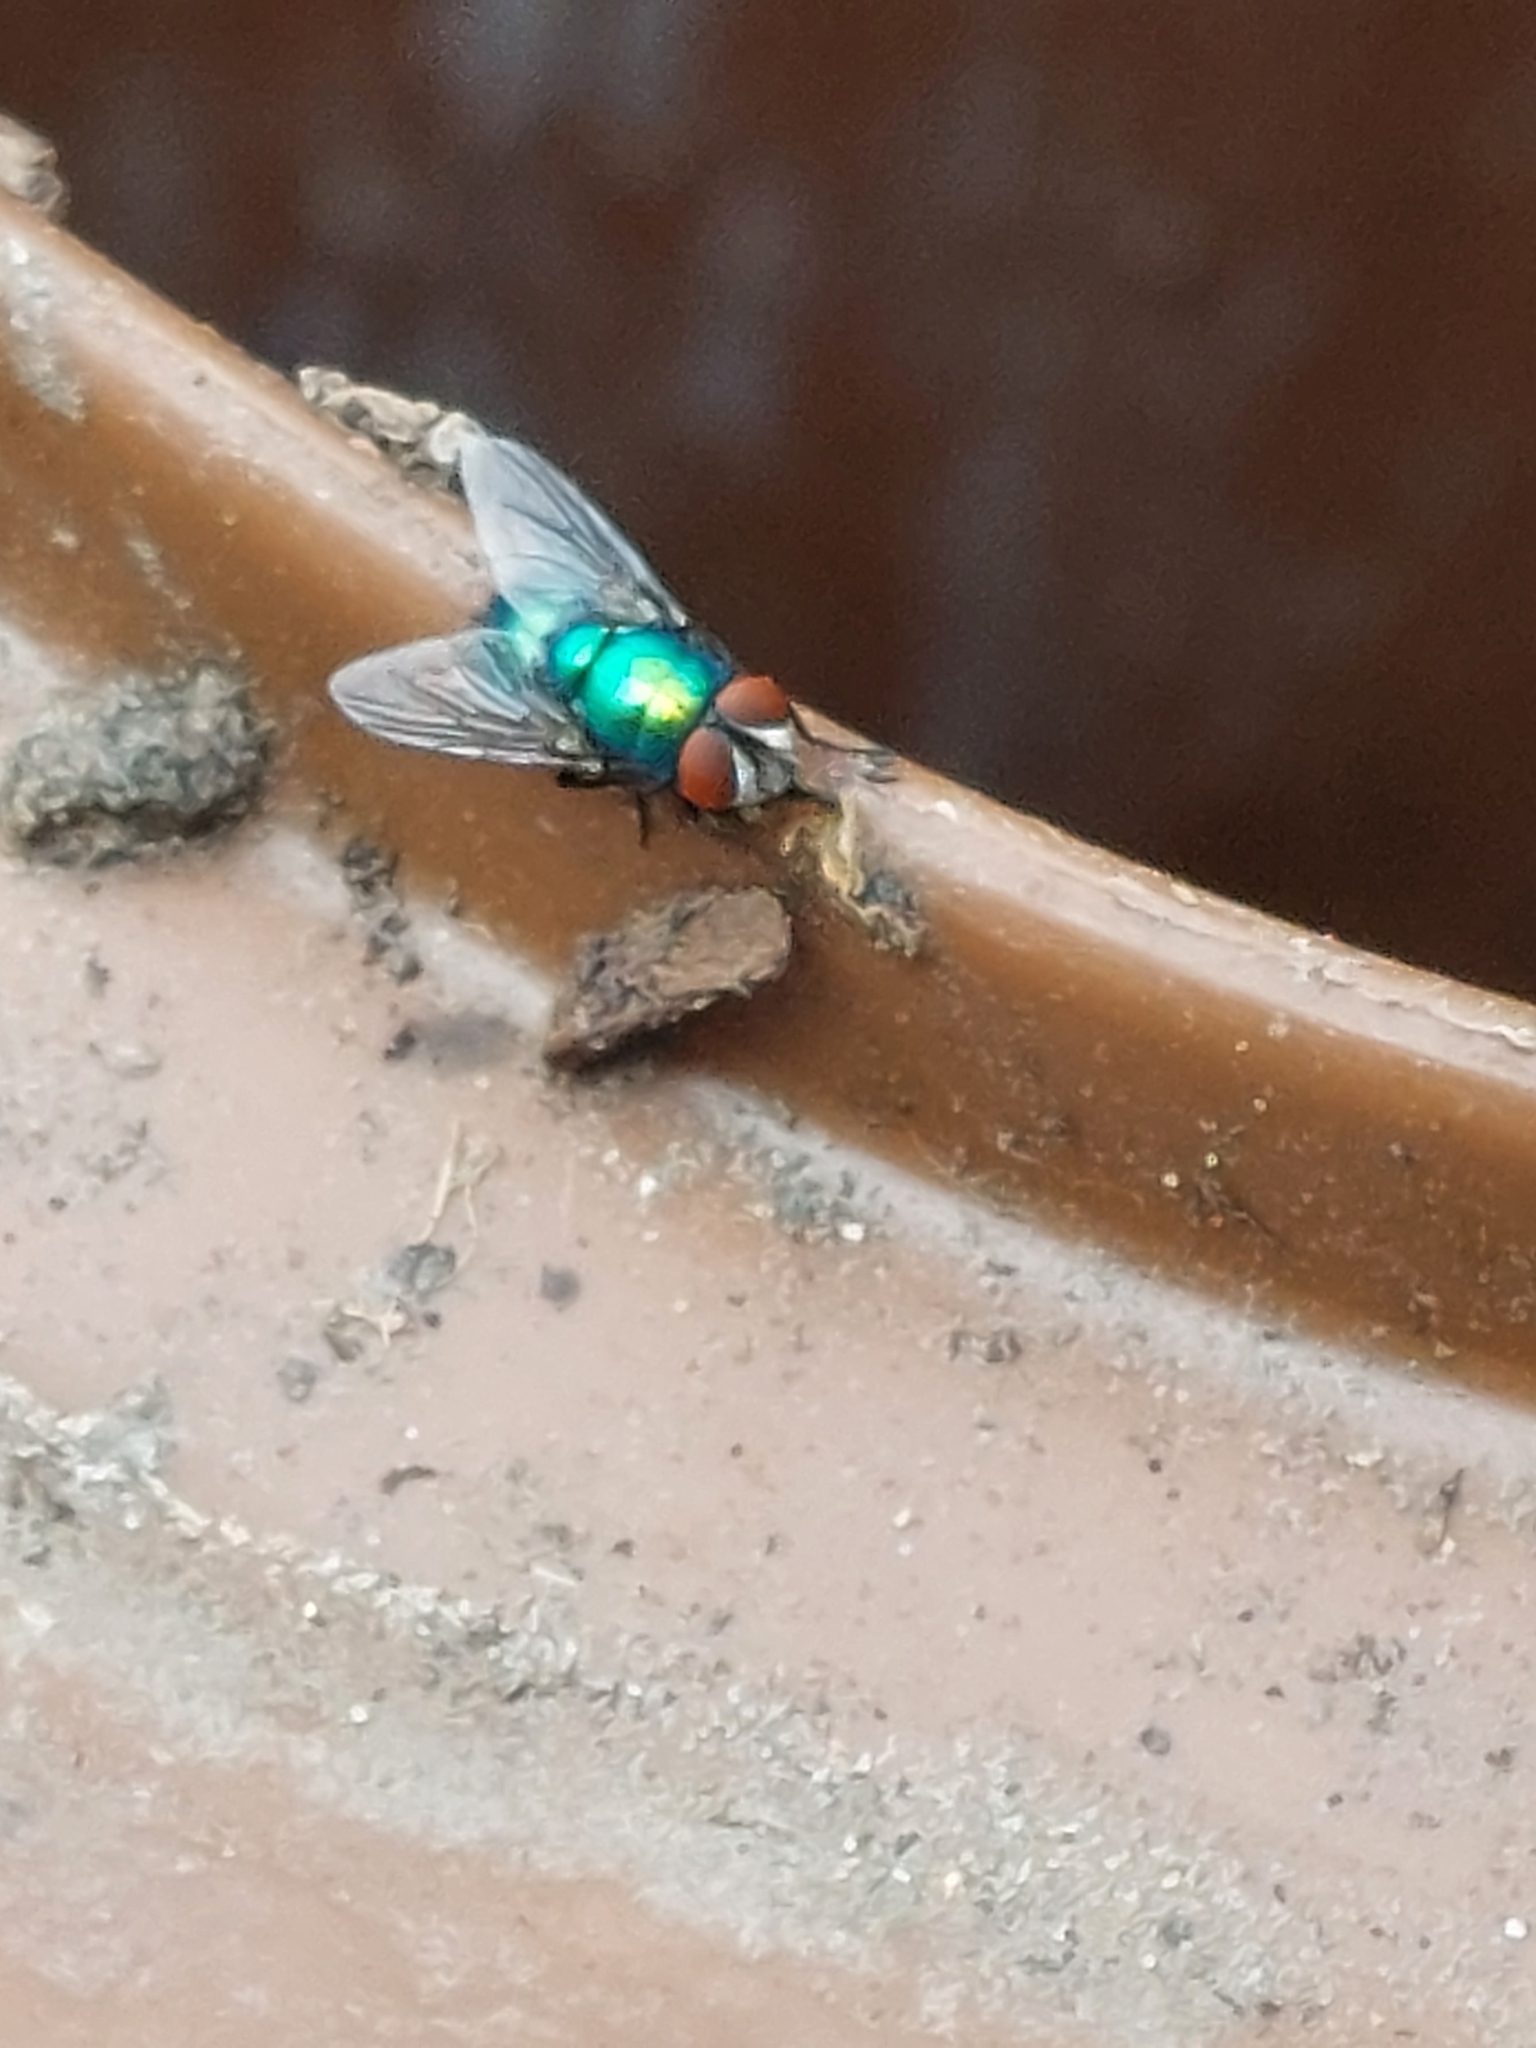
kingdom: Animalia
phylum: Arthropoda
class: Insecta
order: Diptera
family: Calliphoridae
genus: Lucilia
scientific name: Lucilia
